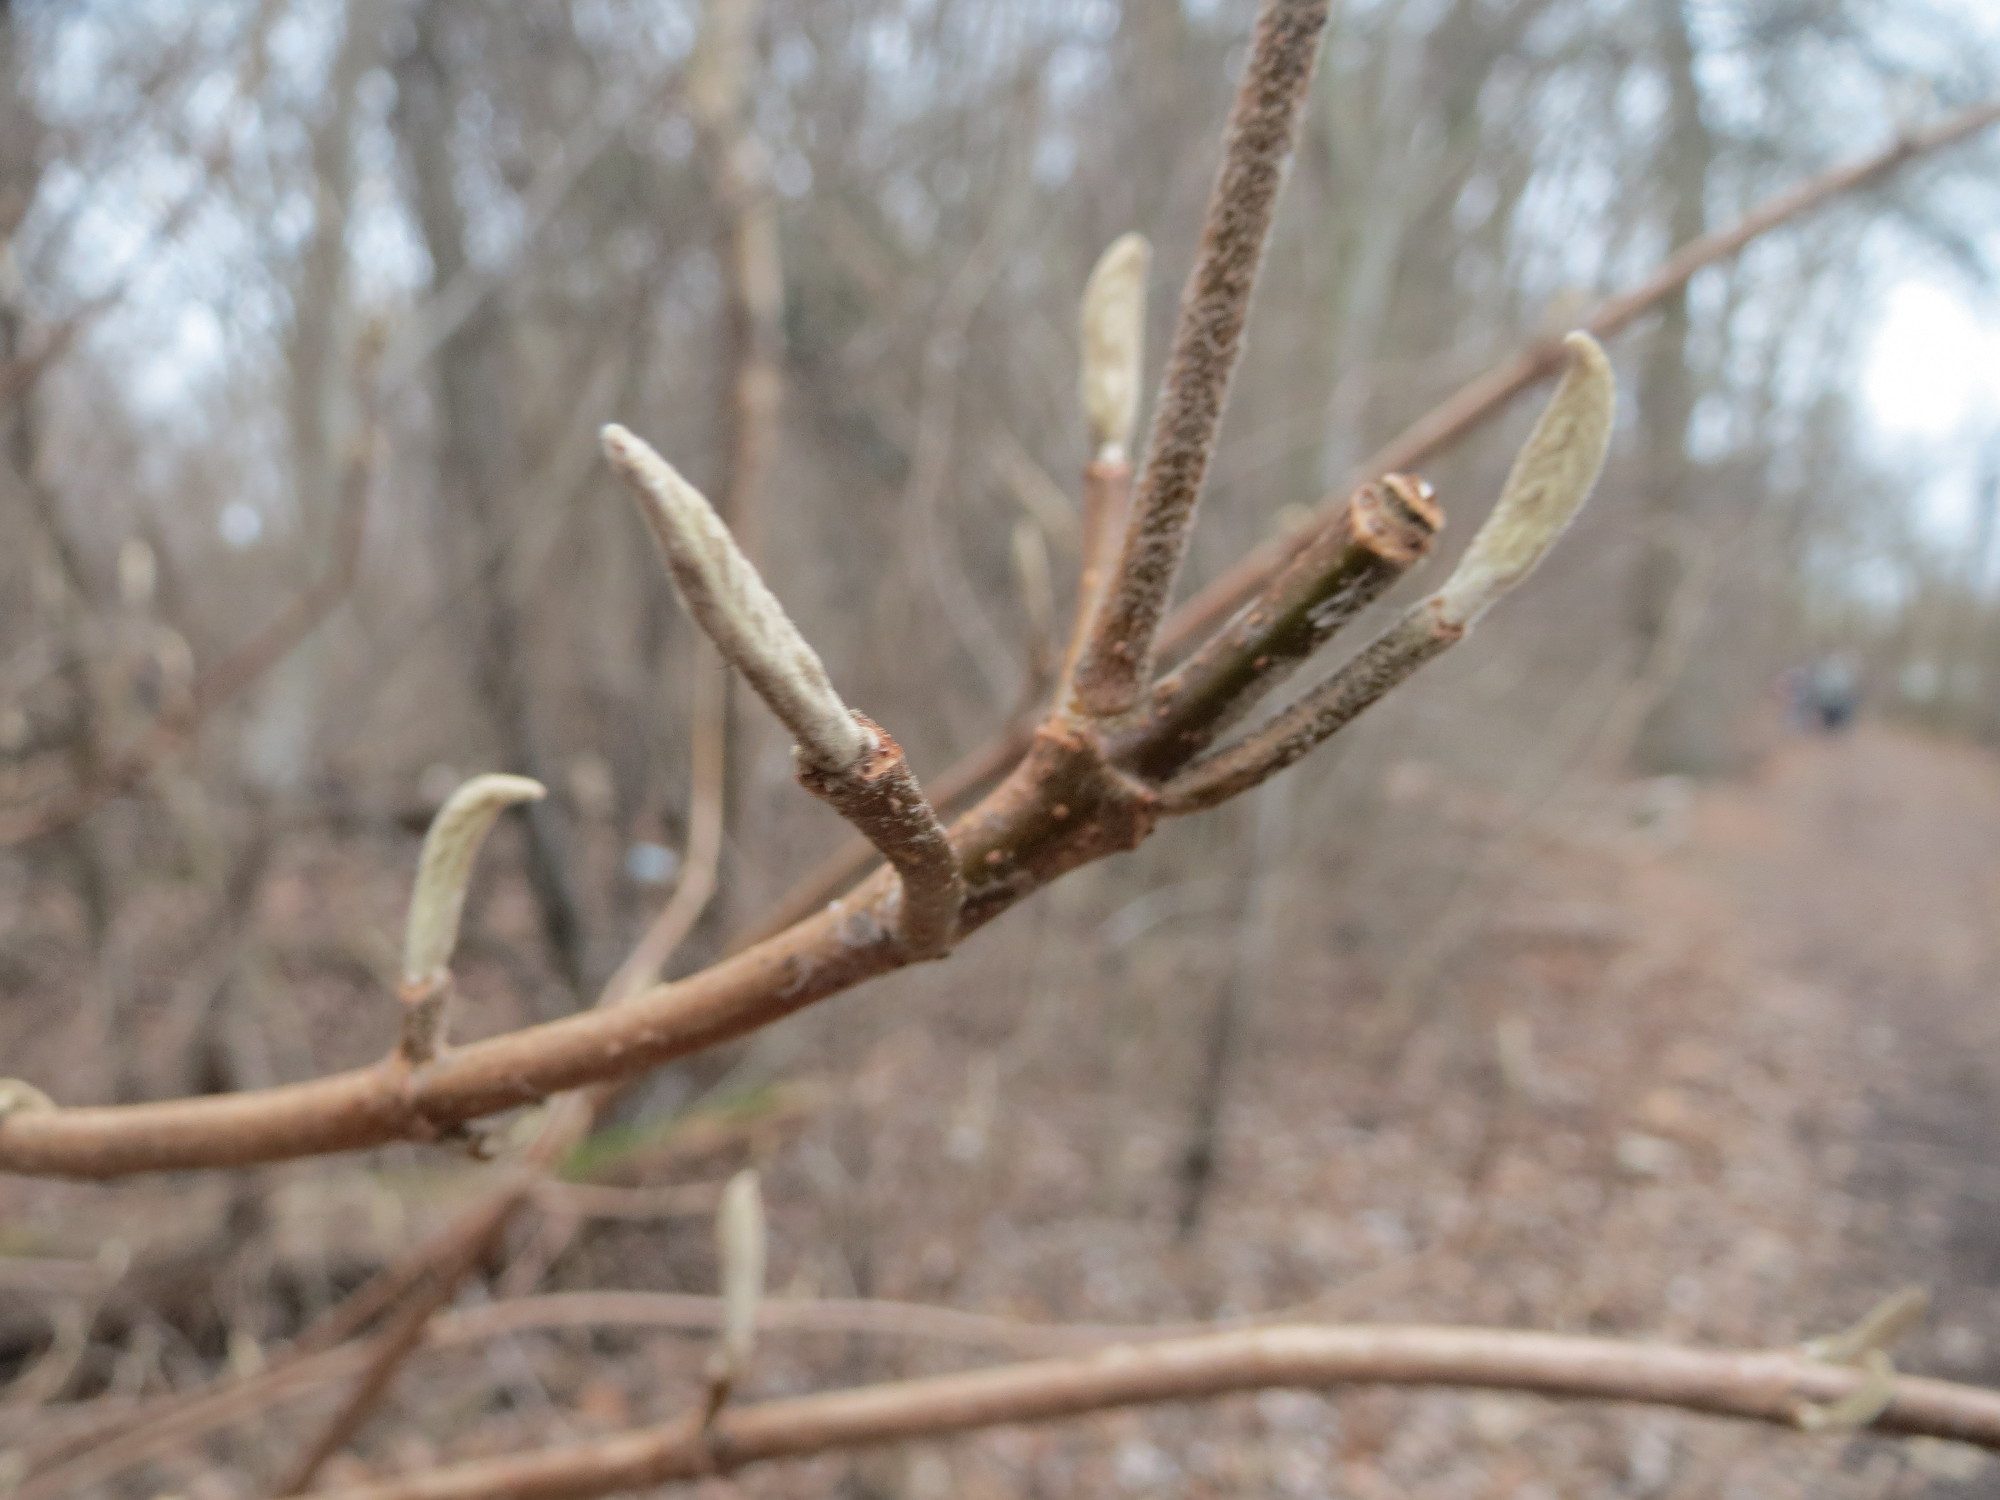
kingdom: Plantae
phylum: Tracheophyta
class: Magnoliopsida
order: Dipsacales
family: Viburnaceae
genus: Viburnum
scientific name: Viburnum lantana
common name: Wayfaring tree
